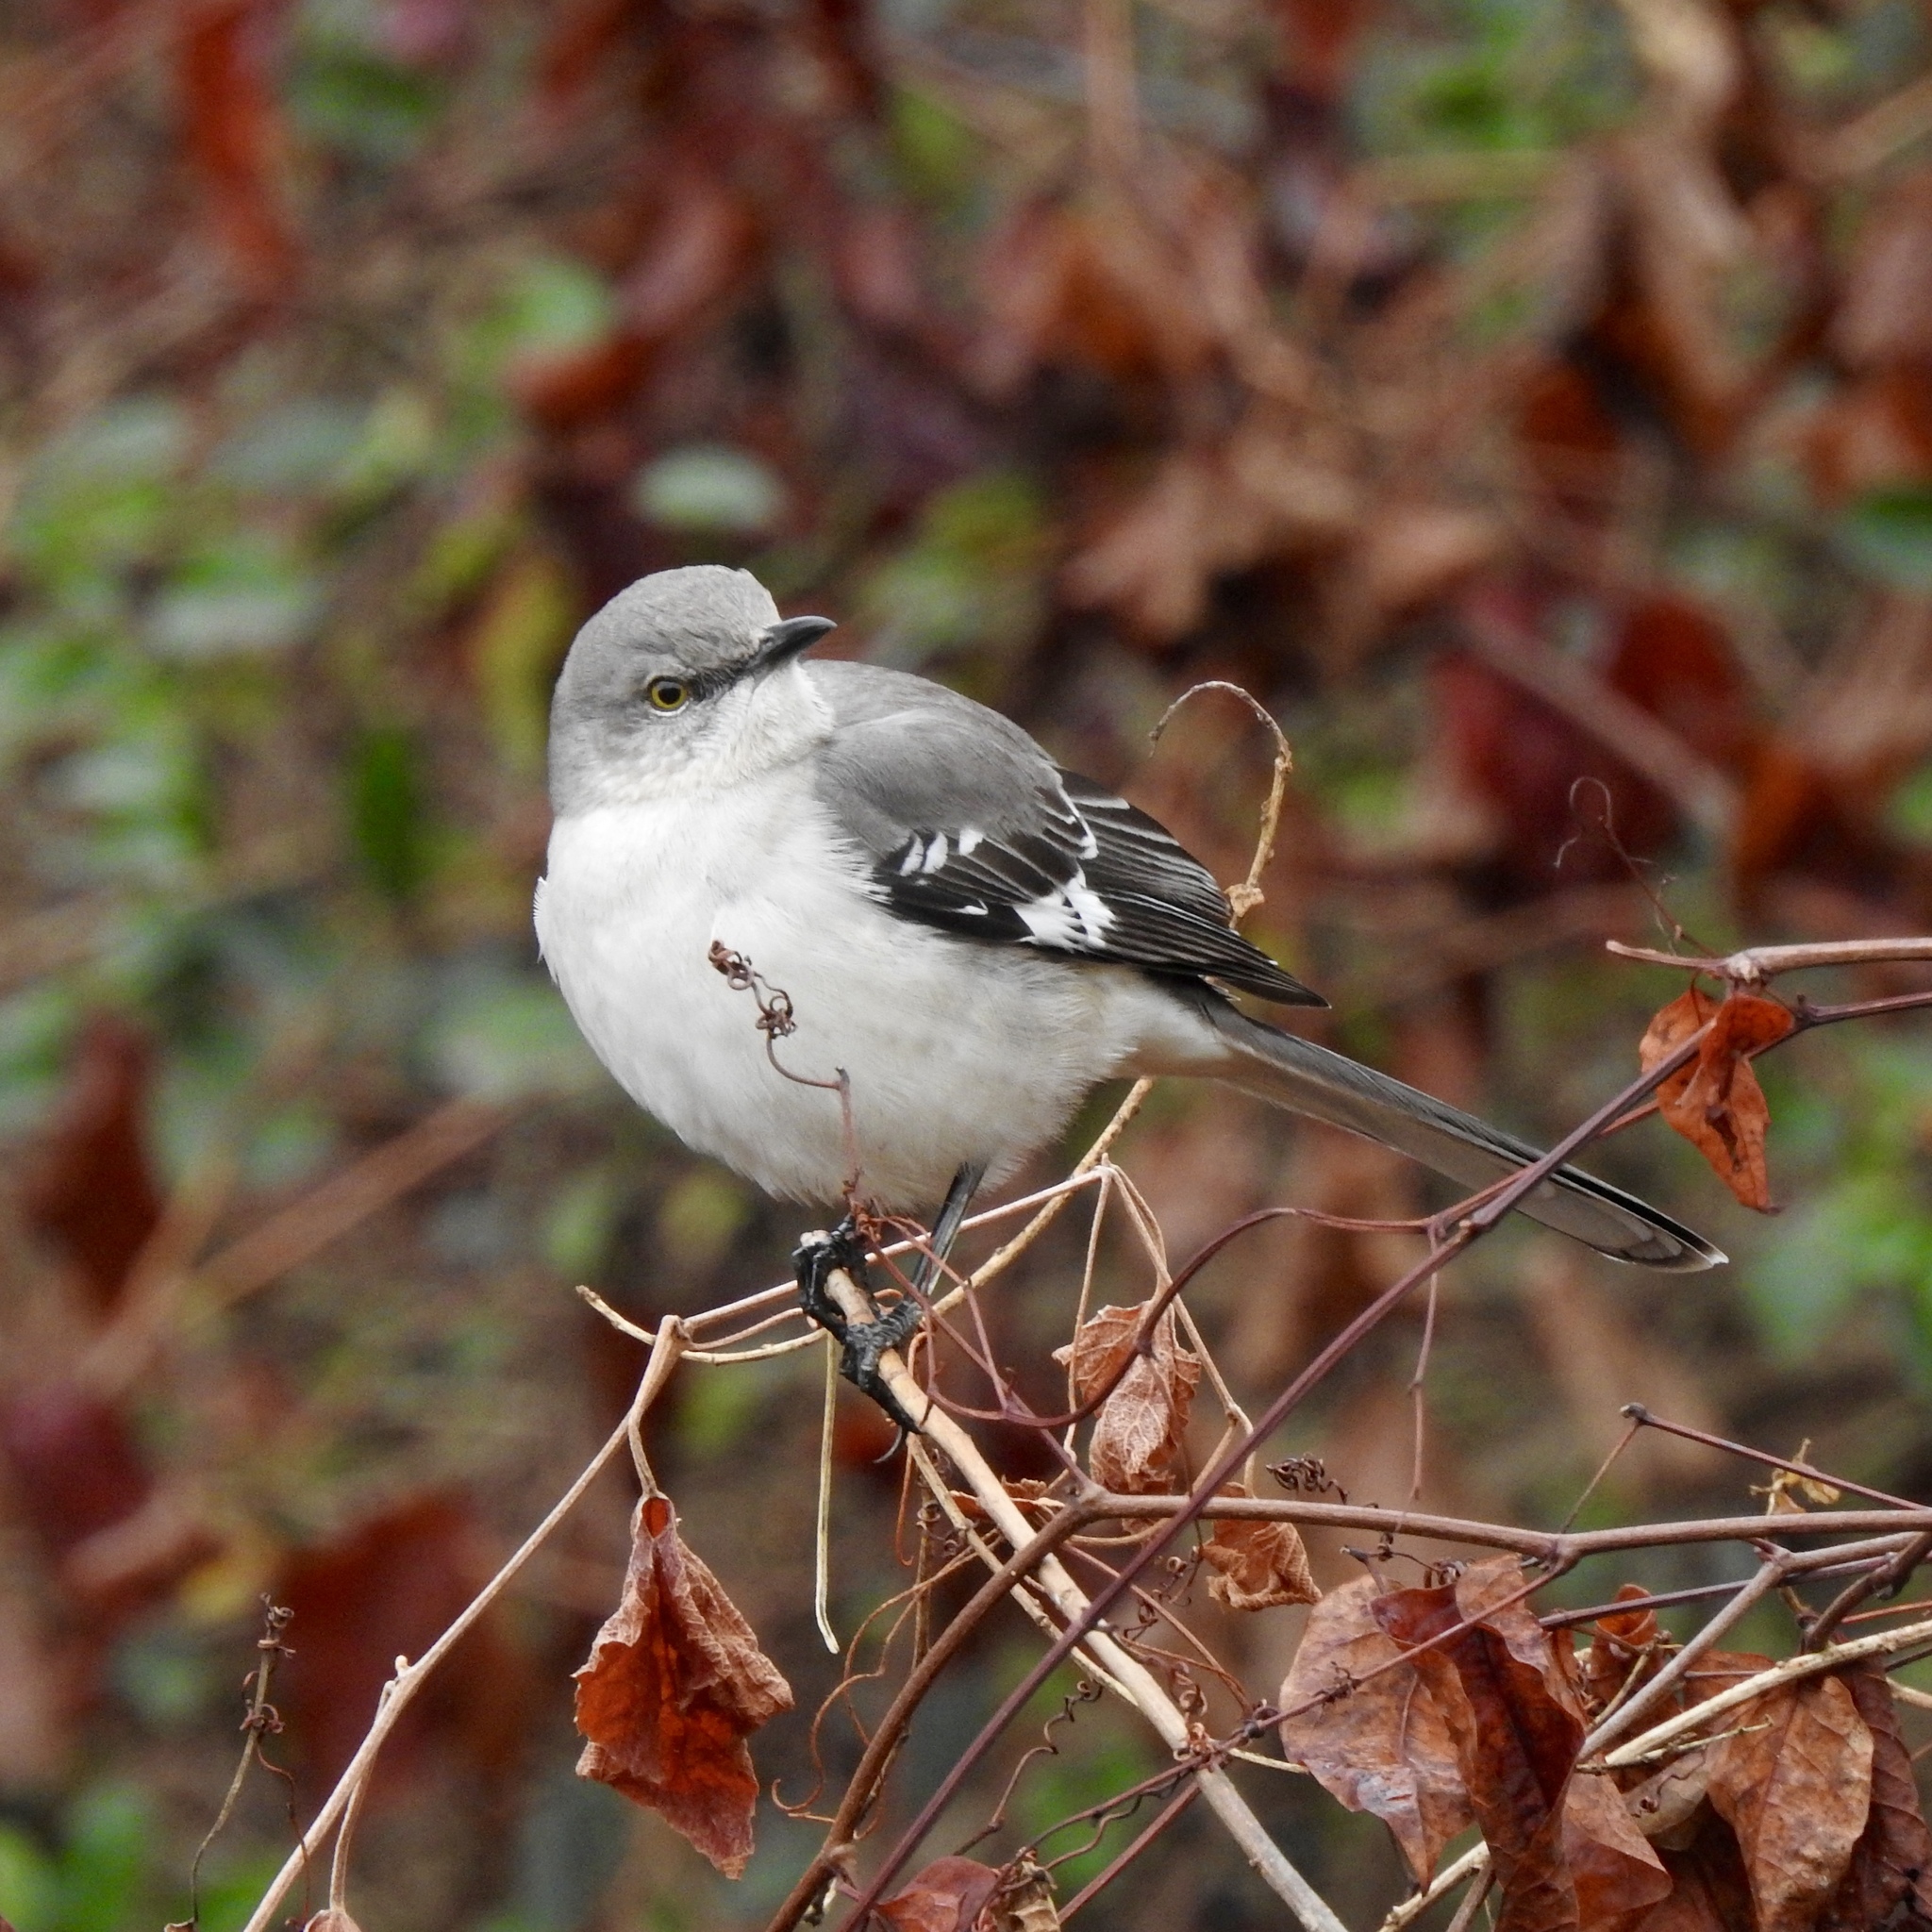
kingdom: Animalia
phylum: Chordata
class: Aves
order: Passeriformes
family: Mimidae
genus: Mimus
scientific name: Mimus polyglottos
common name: Northern mockingbird
